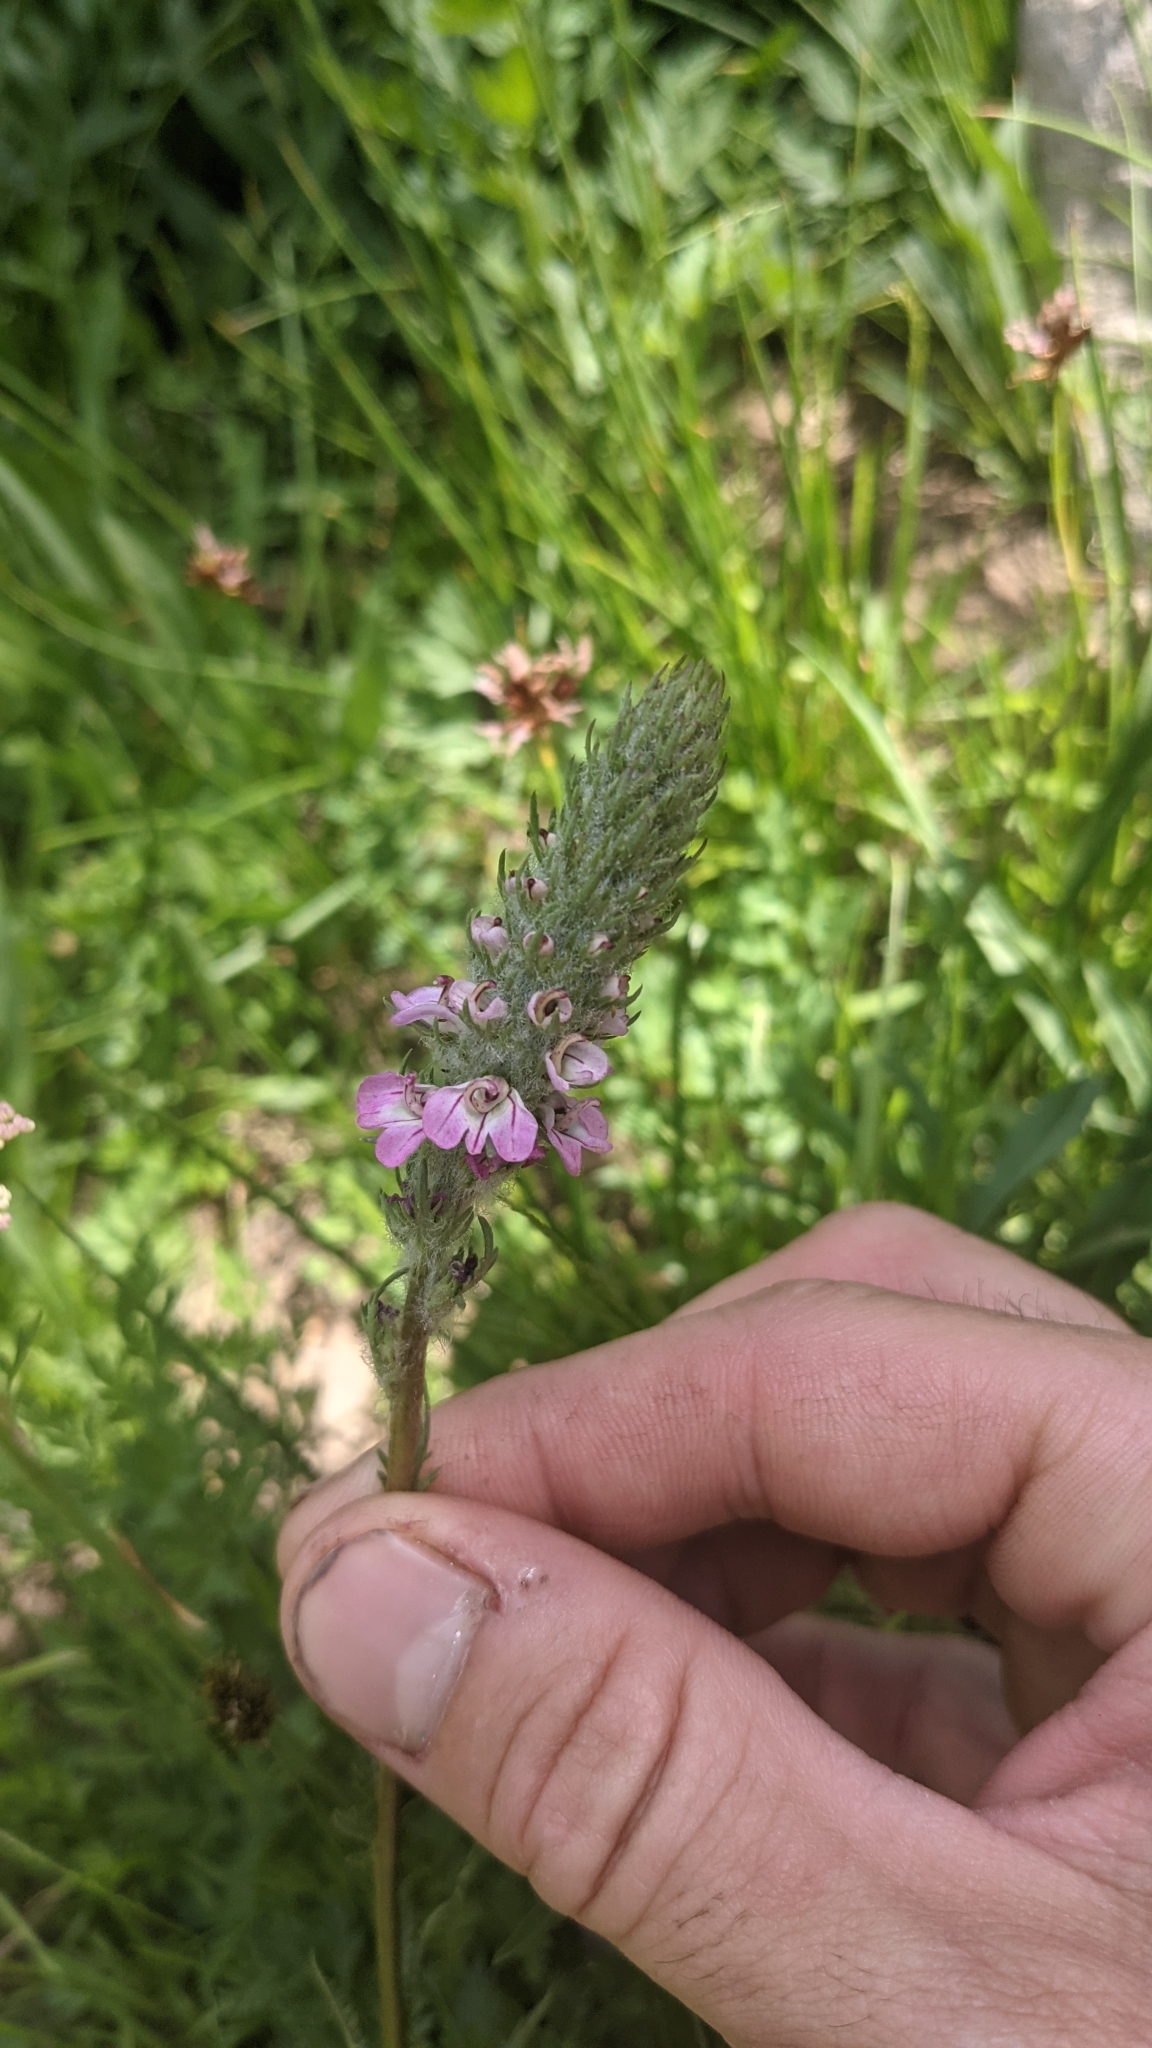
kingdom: Plantae
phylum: Tracheophyta
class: Magnoliopsida
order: Lamiales
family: Orobanchaceae
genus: Pedicularis
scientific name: Pedicularis attollens
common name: Slender pedicularis
